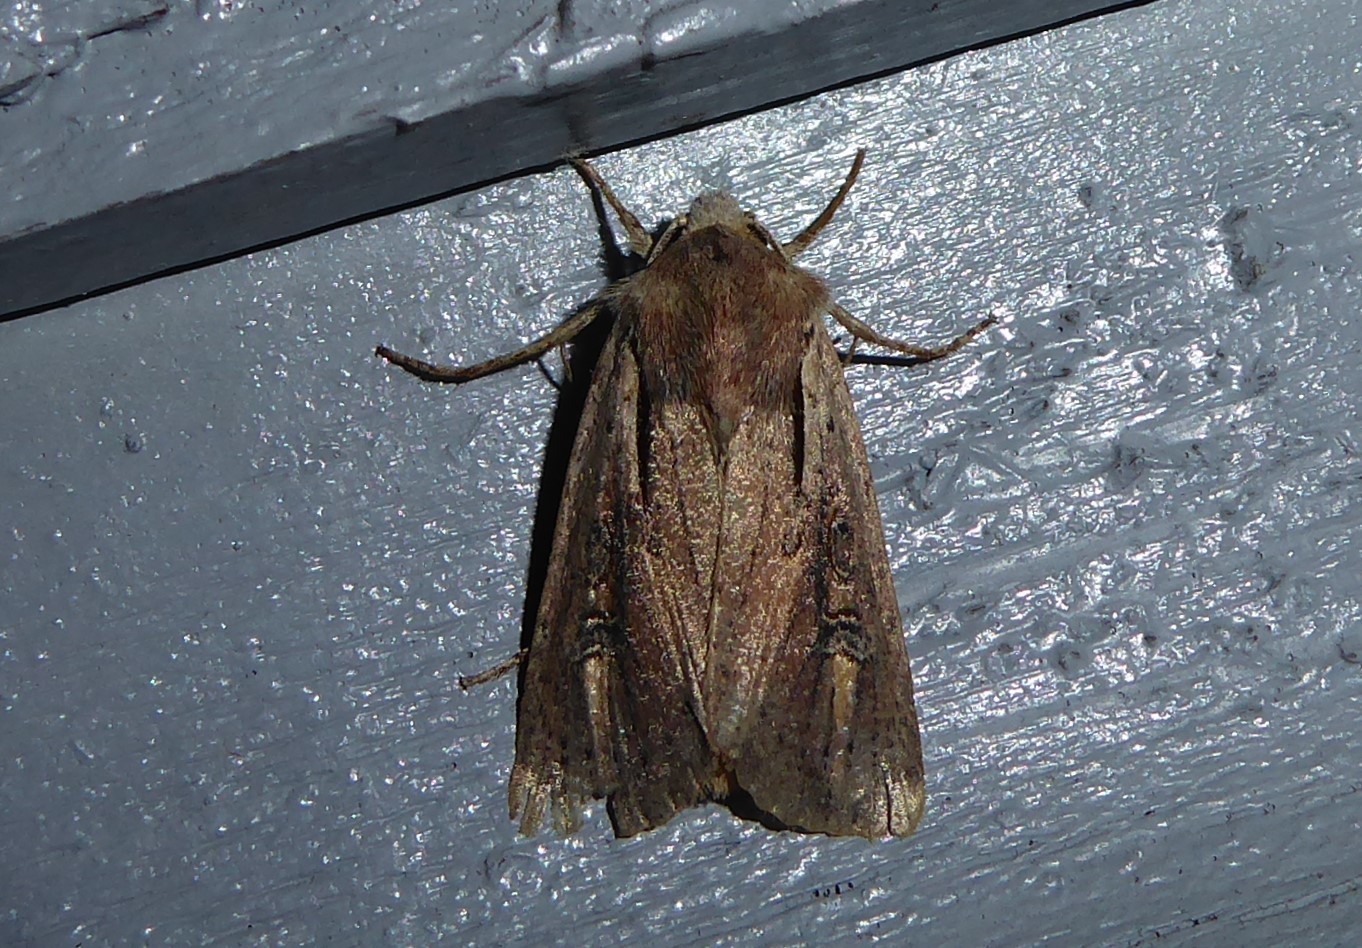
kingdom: Animalia
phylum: Arthropoda
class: Insecta
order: Lepidoptera
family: Noctuidae
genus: Ichneutica
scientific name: Ichneutica atristriga
